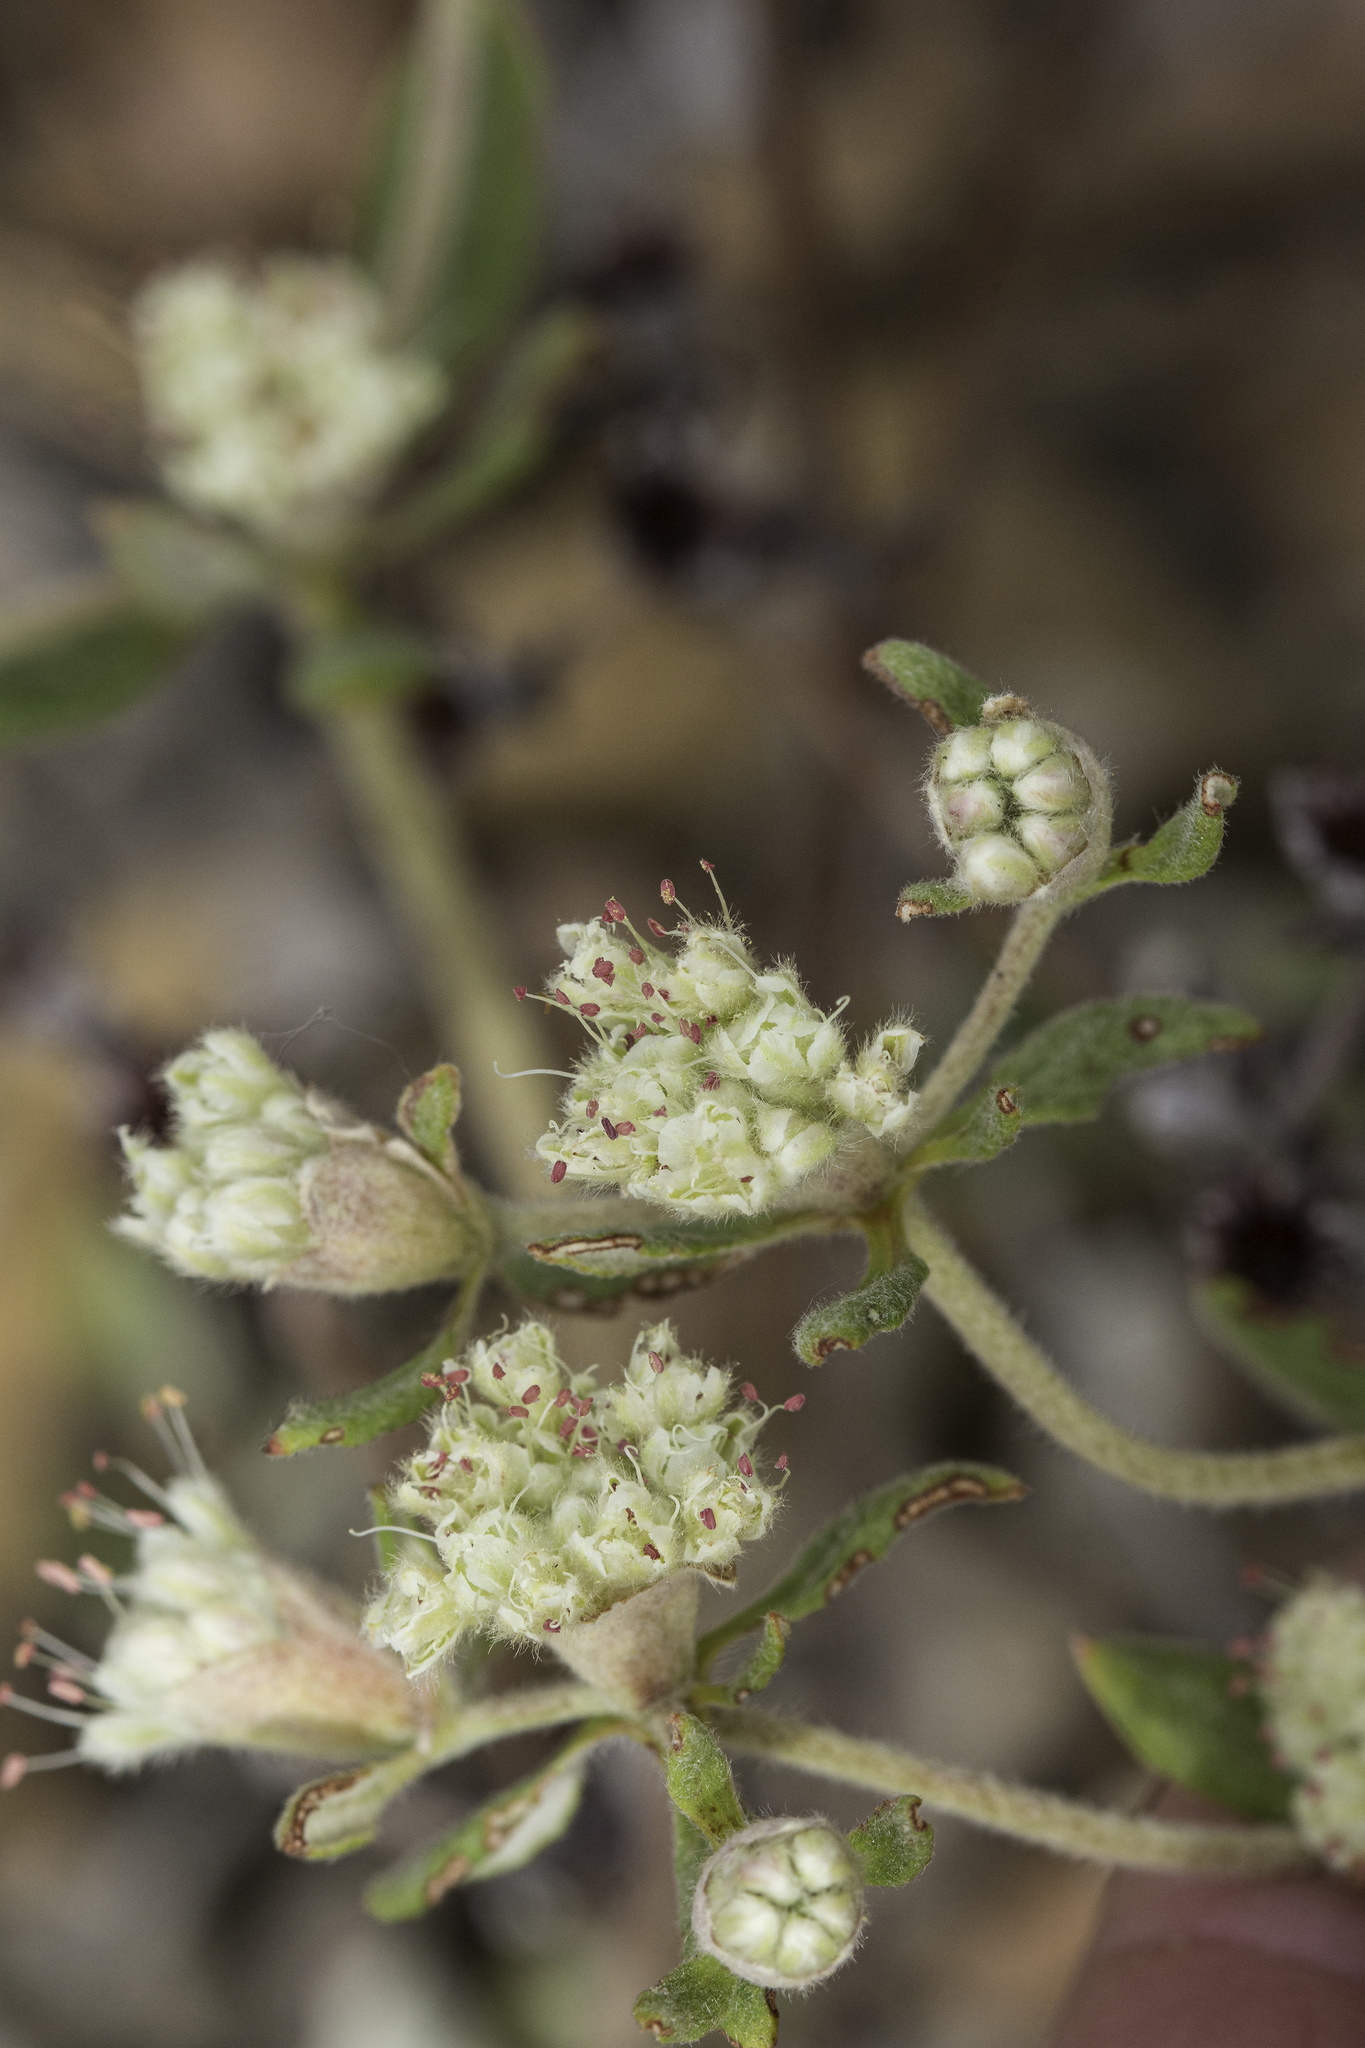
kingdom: Plantae
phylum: Tracheophyta
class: Magnoliopsida
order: Caryophyllales
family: Polygonaceae
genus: Eriogonum
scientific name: Eriogonum jamesii
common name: Antelope-sage
